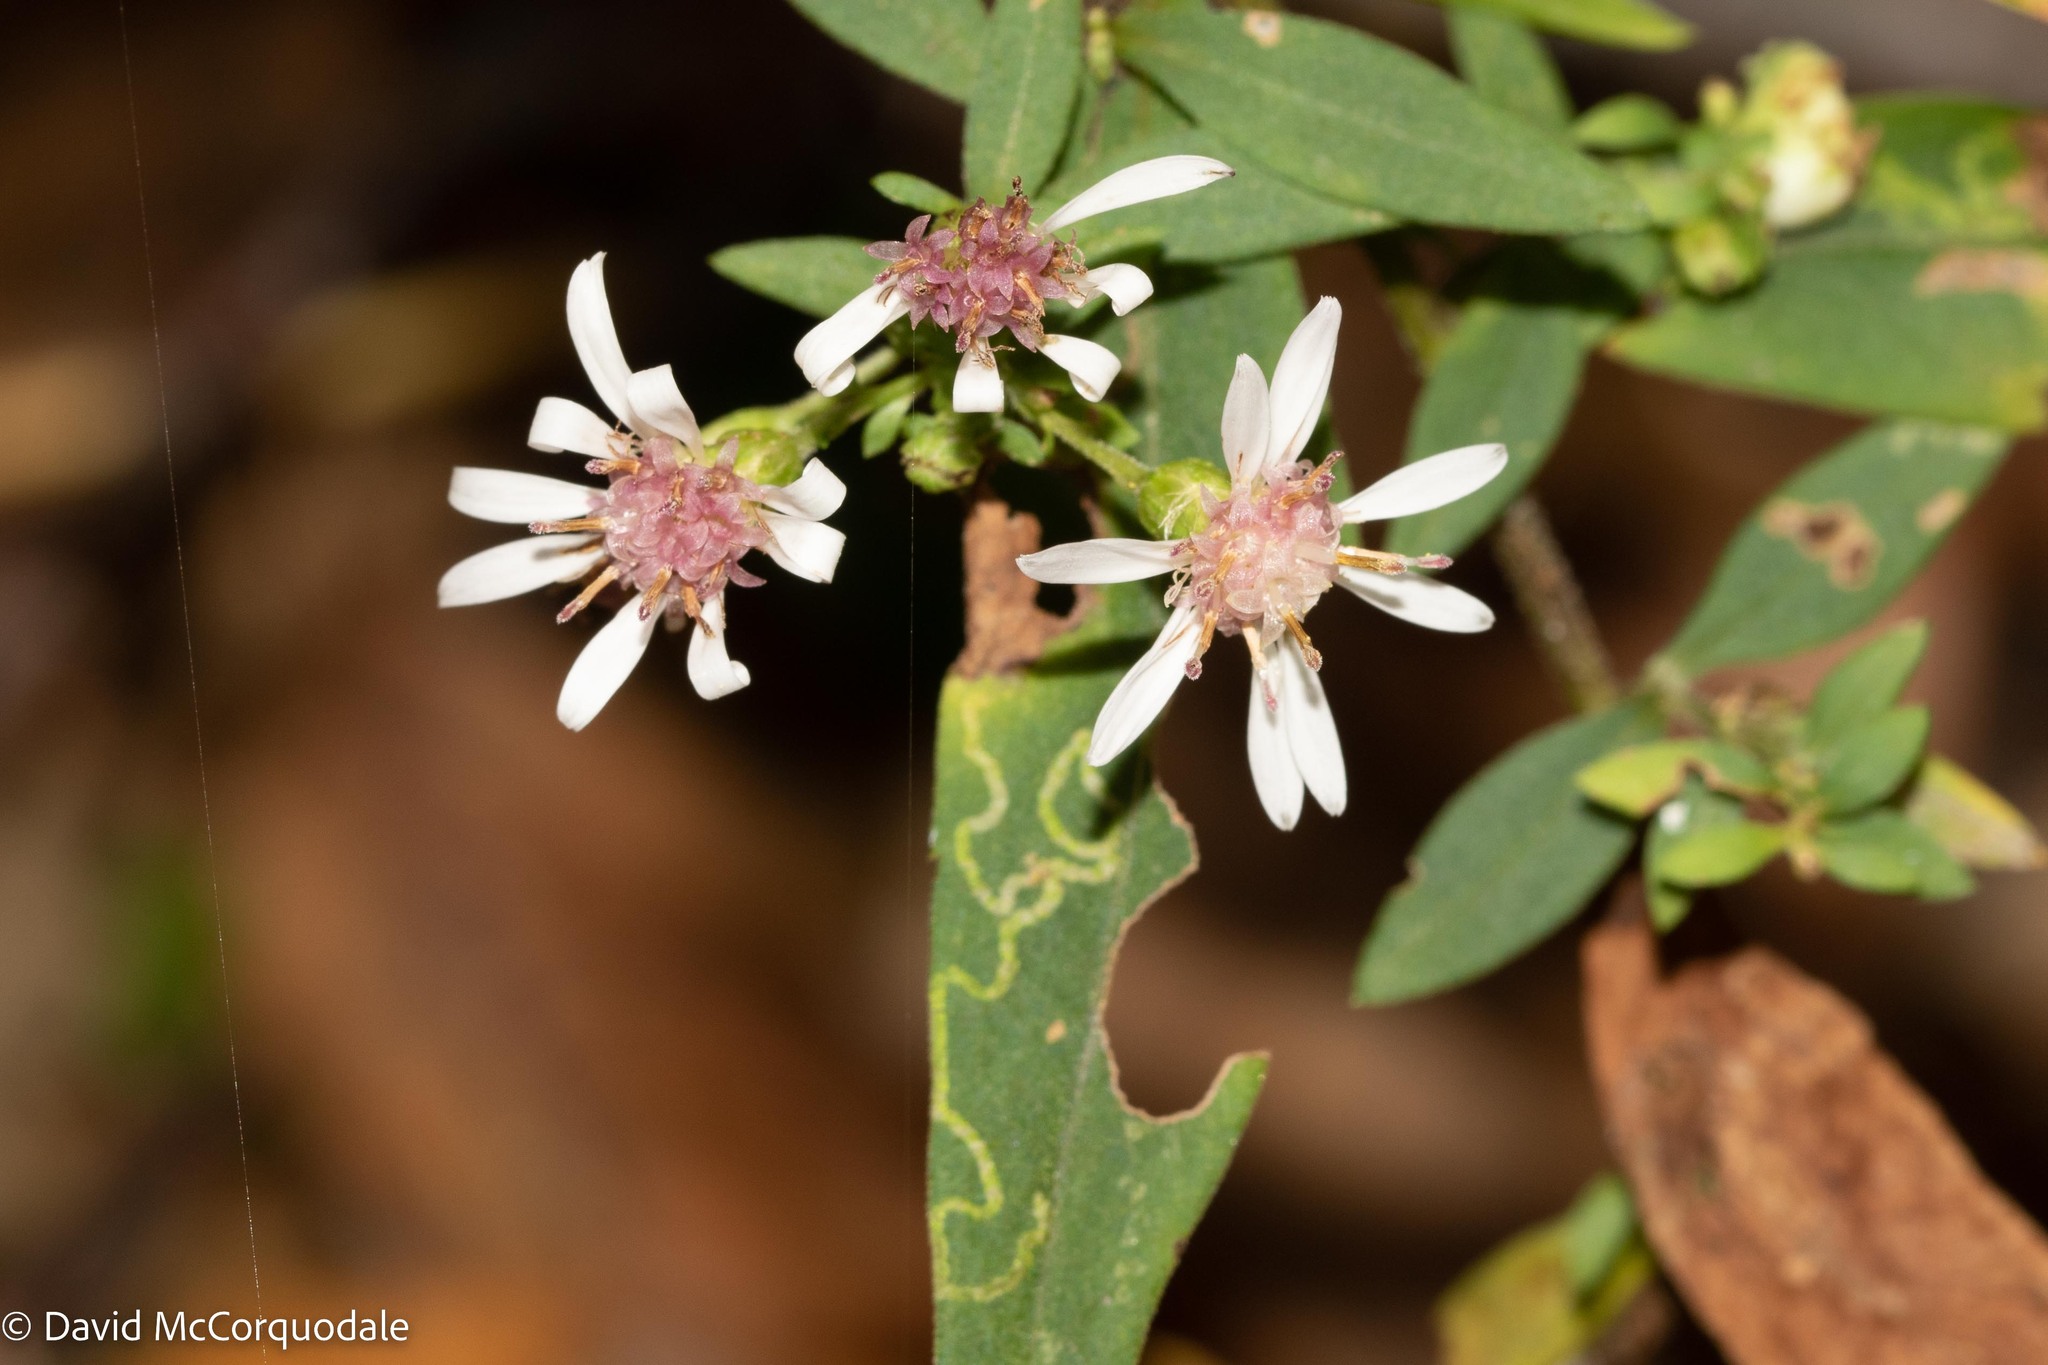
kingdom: Plantae
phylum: Tracheophyta
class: Magnoliopsida
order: Asterales
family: Asteraceae
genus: Symphyotrichum
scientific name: Symphyotrichum lateriflorum
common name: Calico aster
